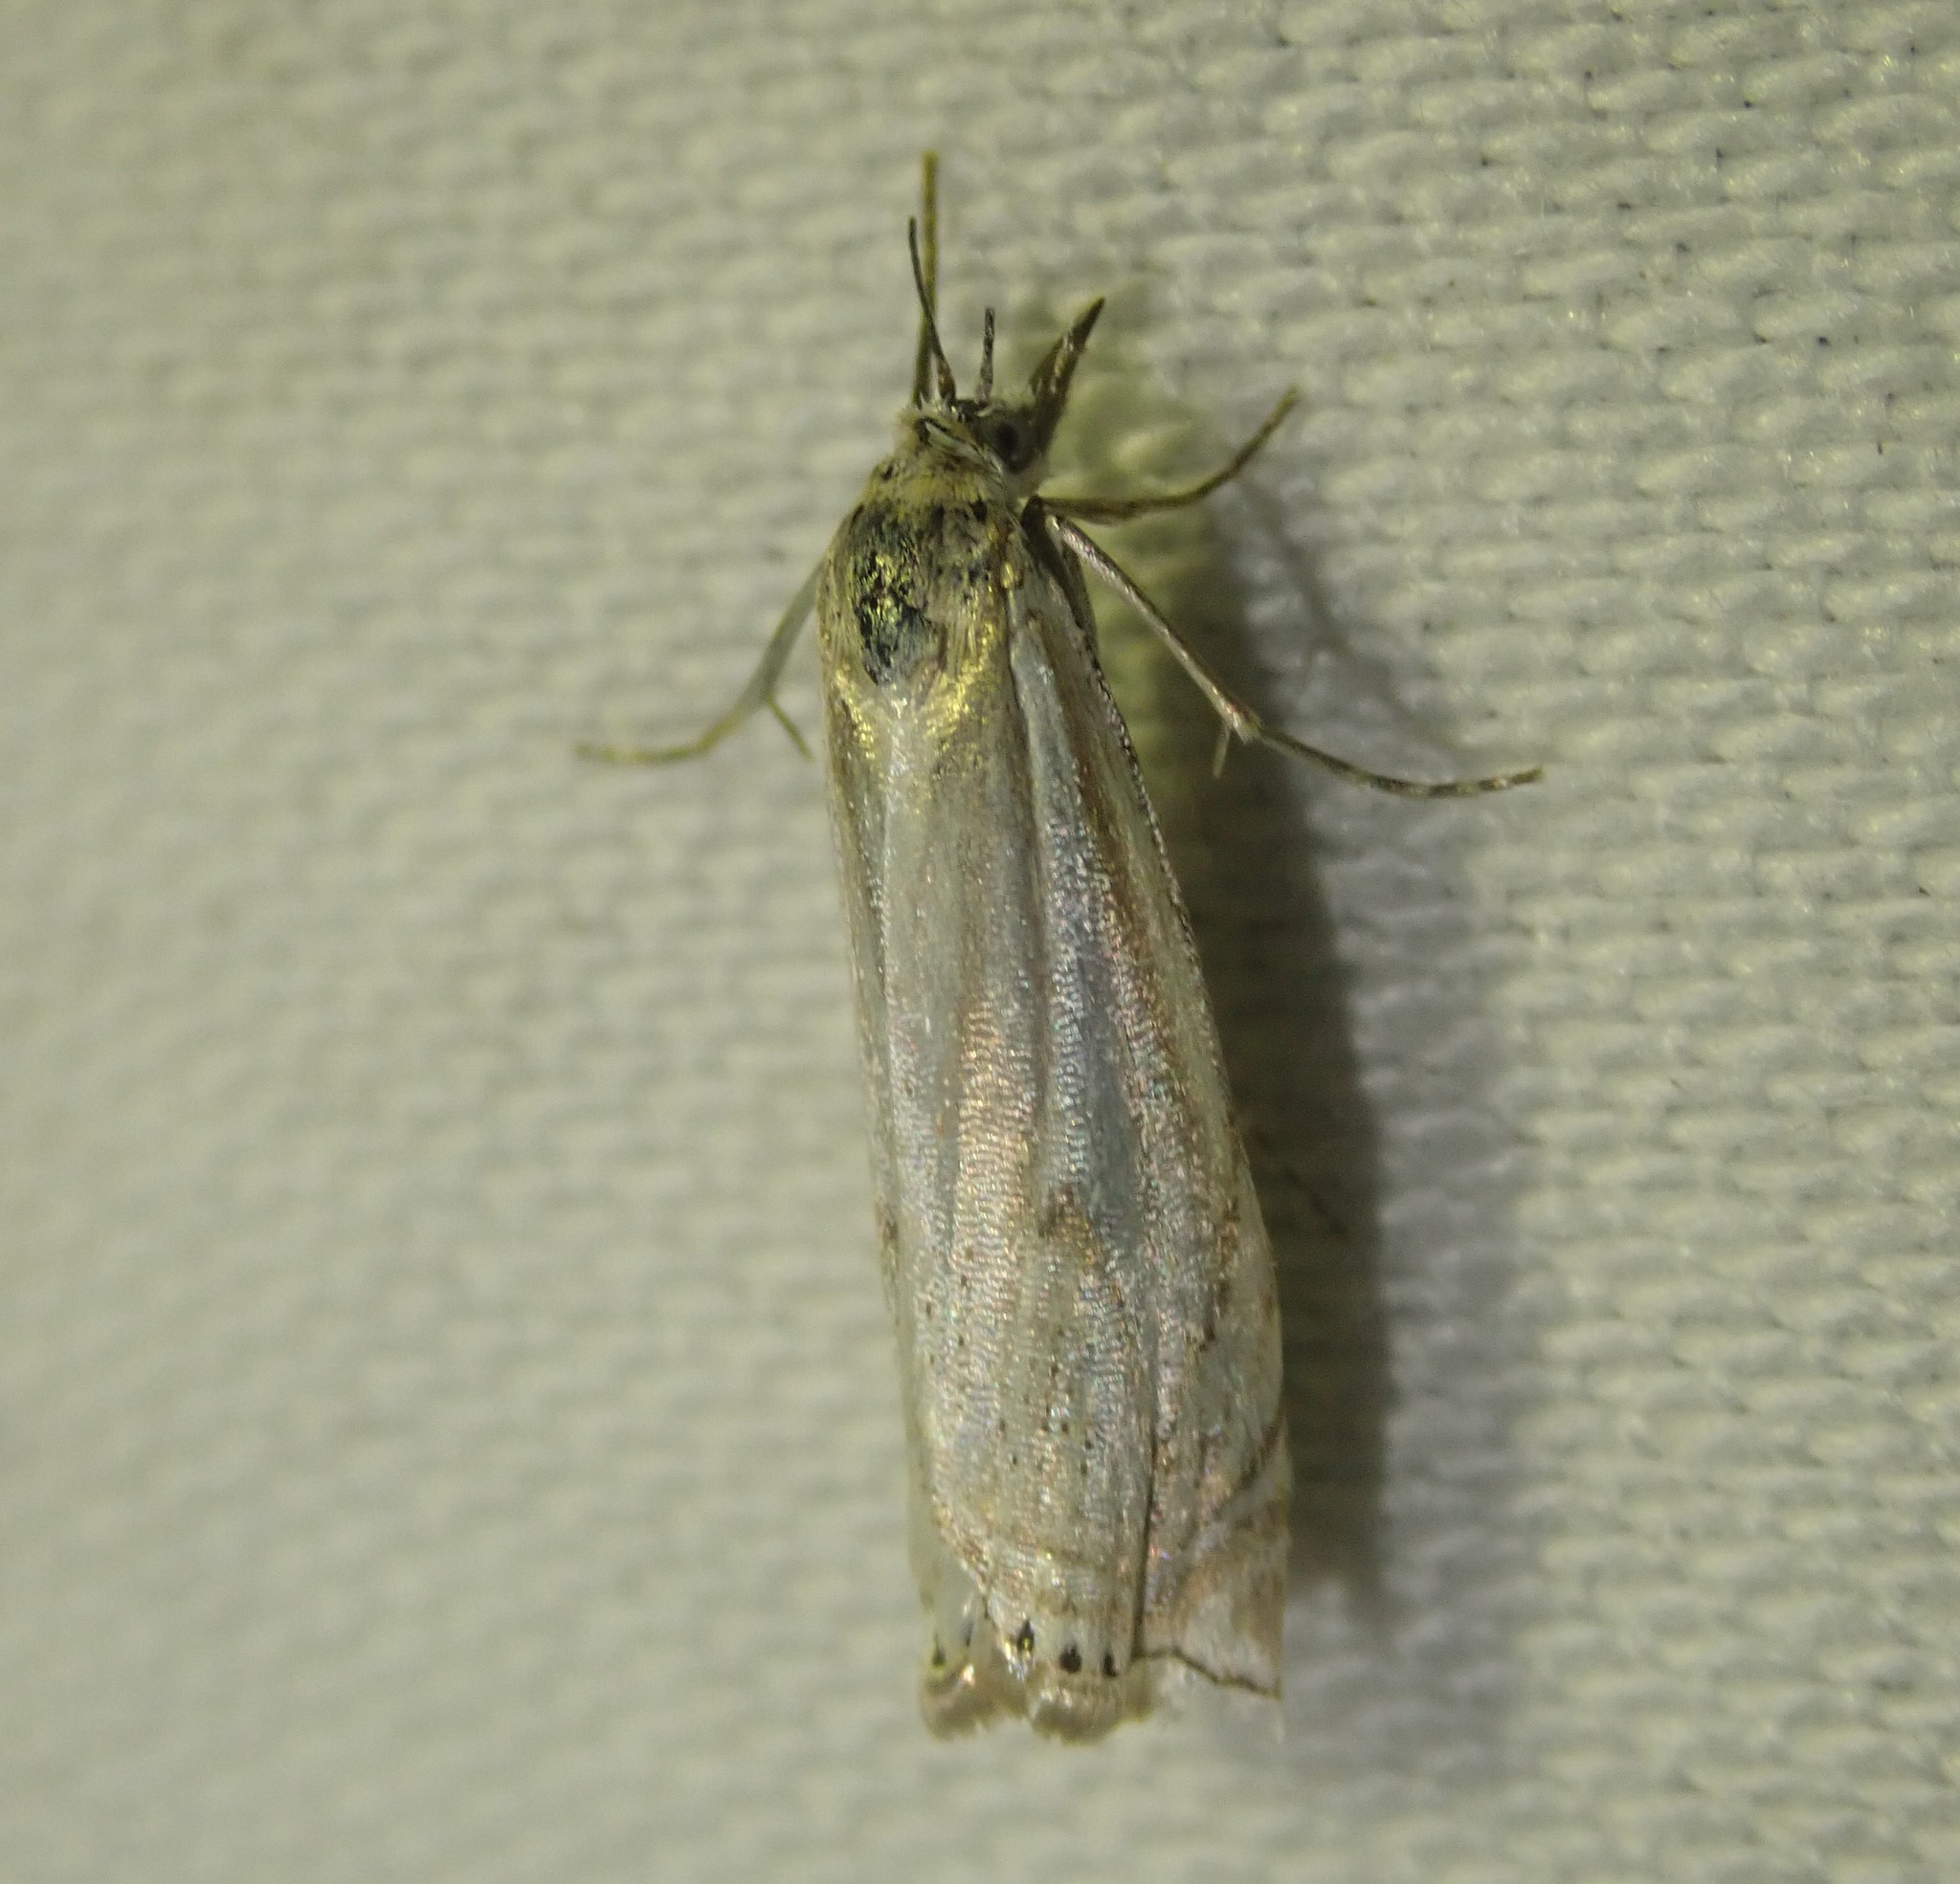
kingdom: Animalia
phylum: Arthropoda
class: Insecta
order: Lepidoptera
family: Crambidae
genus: Crambus
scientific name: Crambus nemorella
